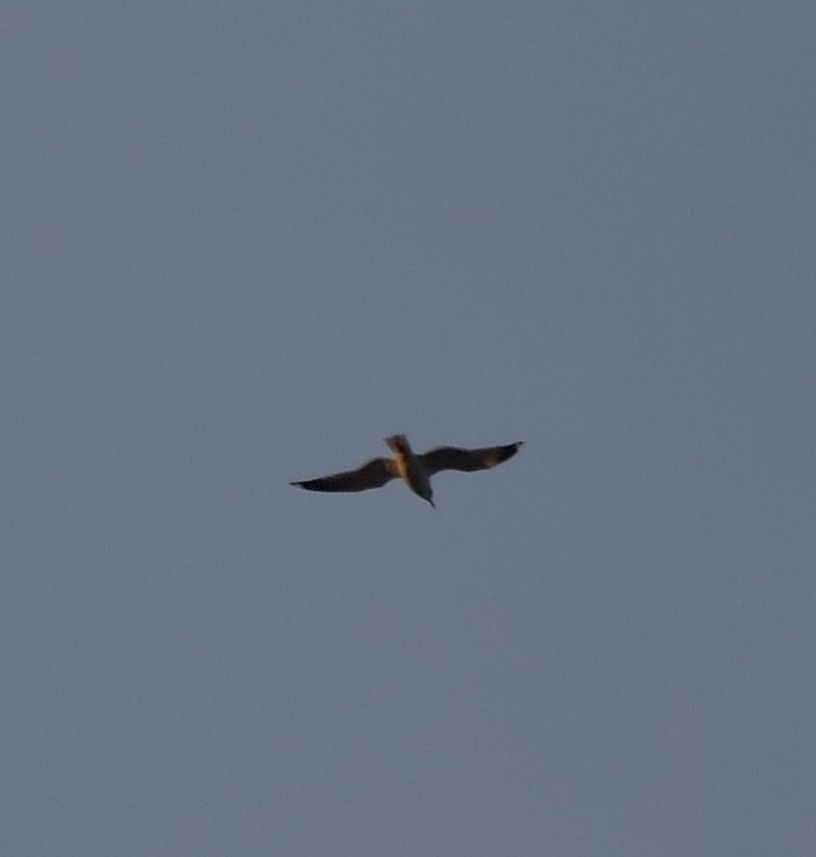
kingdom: Animalia
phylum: Chordata
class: Aves
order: Charadriiformes
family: Laridae
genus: Larus
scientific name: Larus canus
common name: Mew gull
